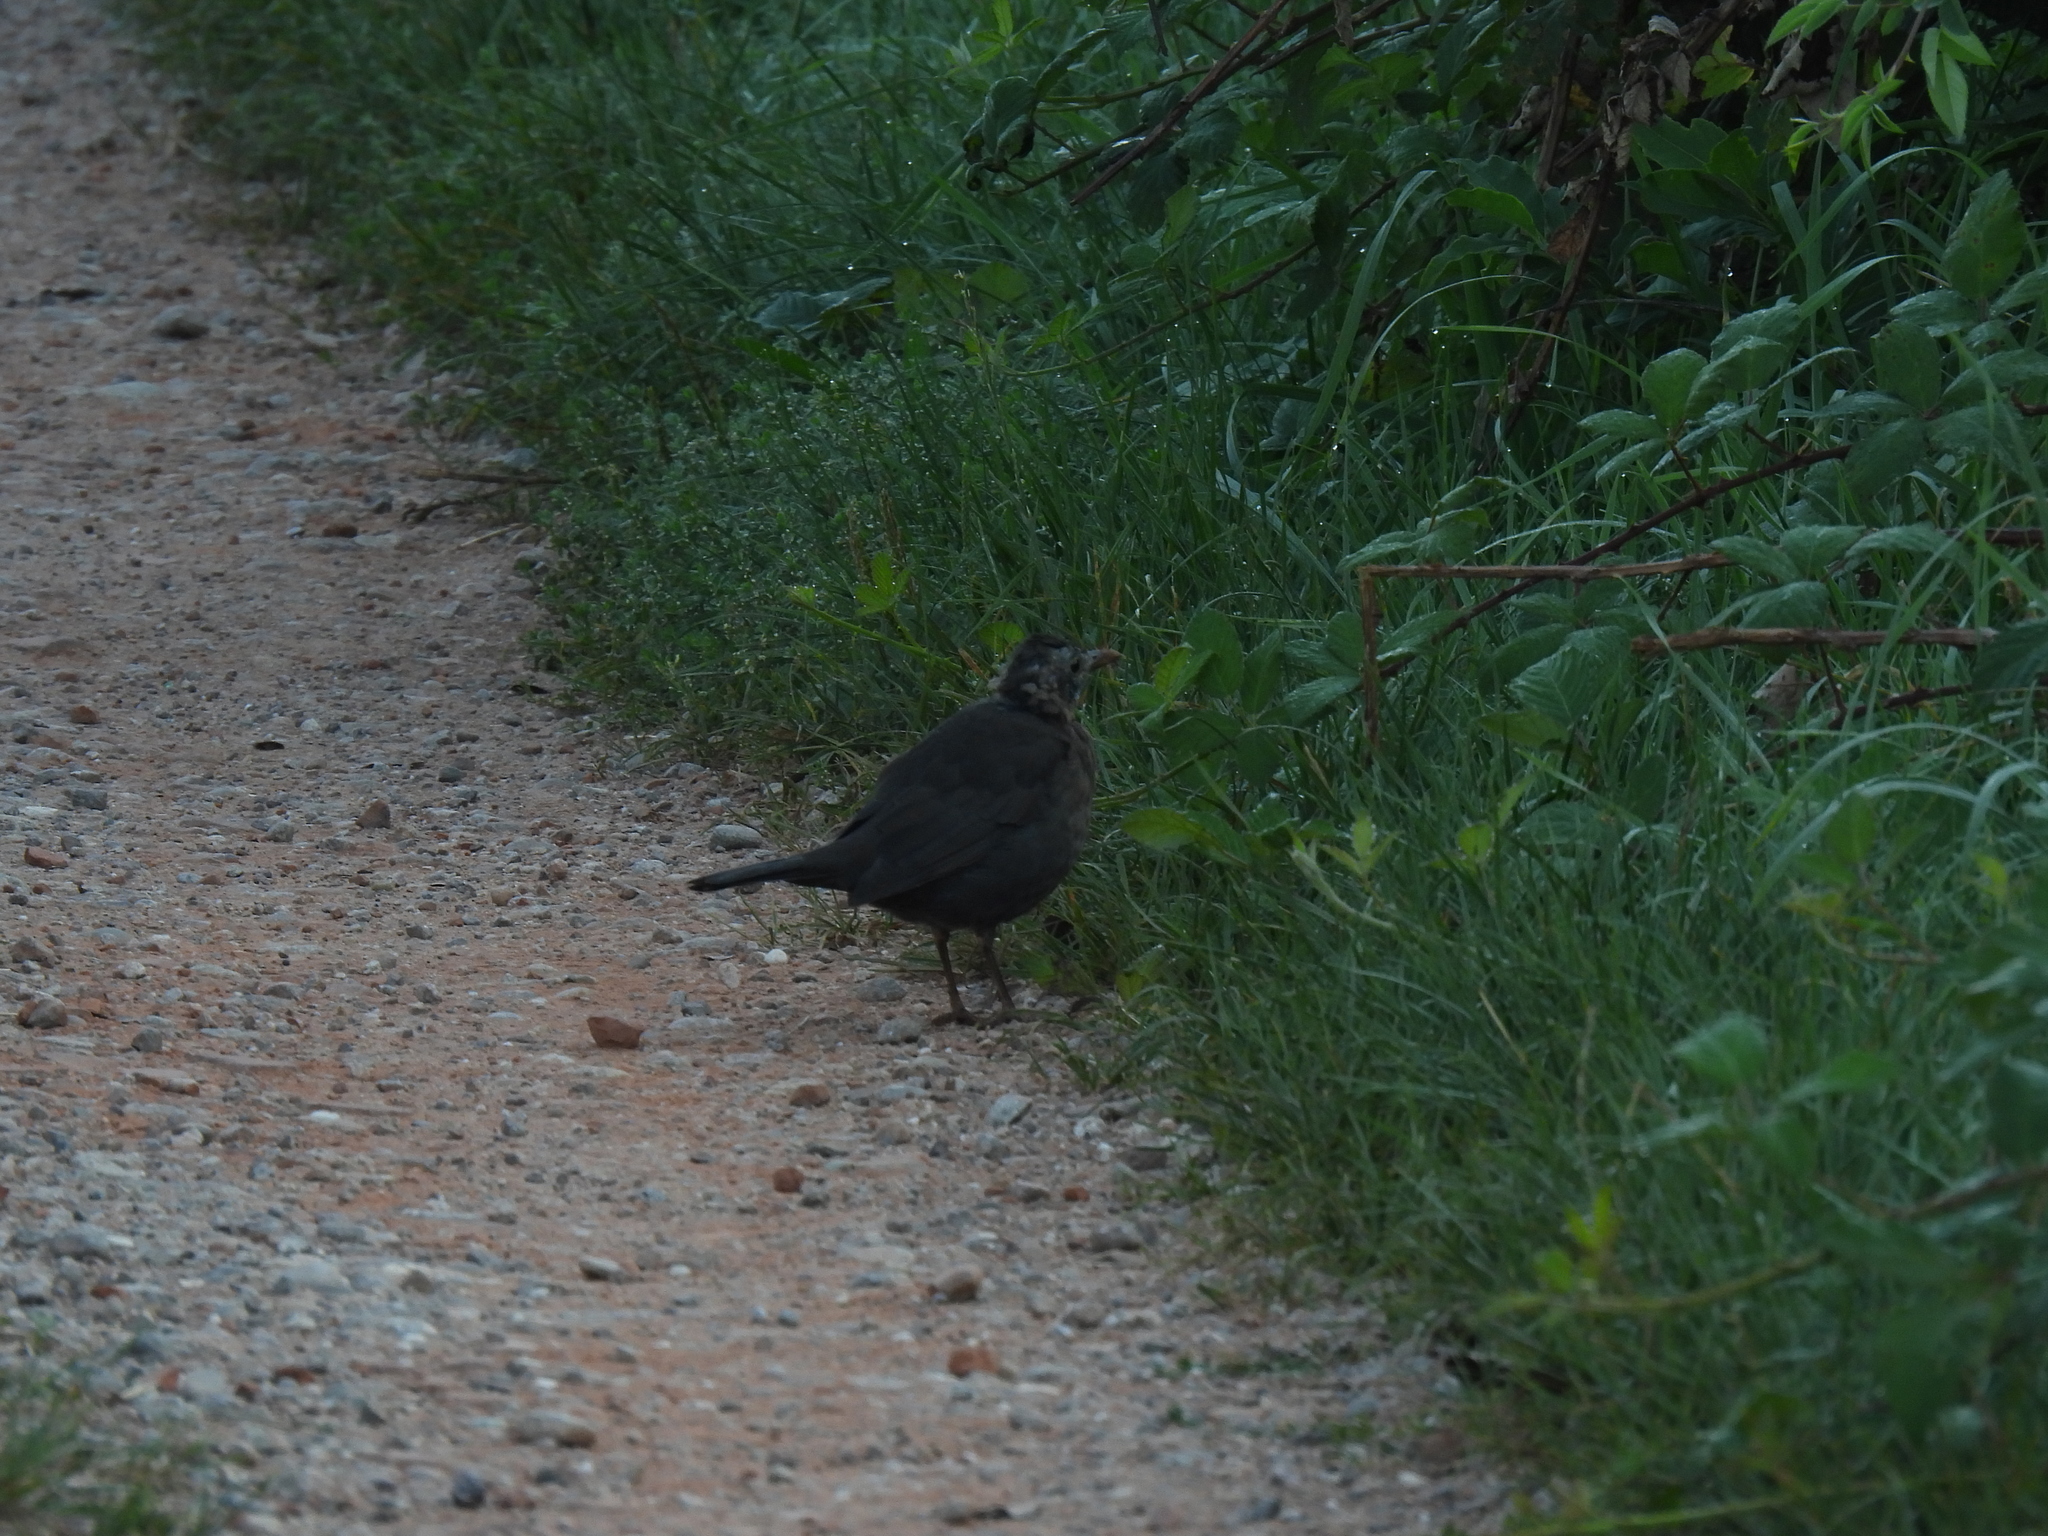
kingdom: Animalia
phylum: Chordata
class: Aves
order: Passeriformes
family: Turdidae
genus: Turdus
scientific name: Turdus merula
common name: Common blackbird
